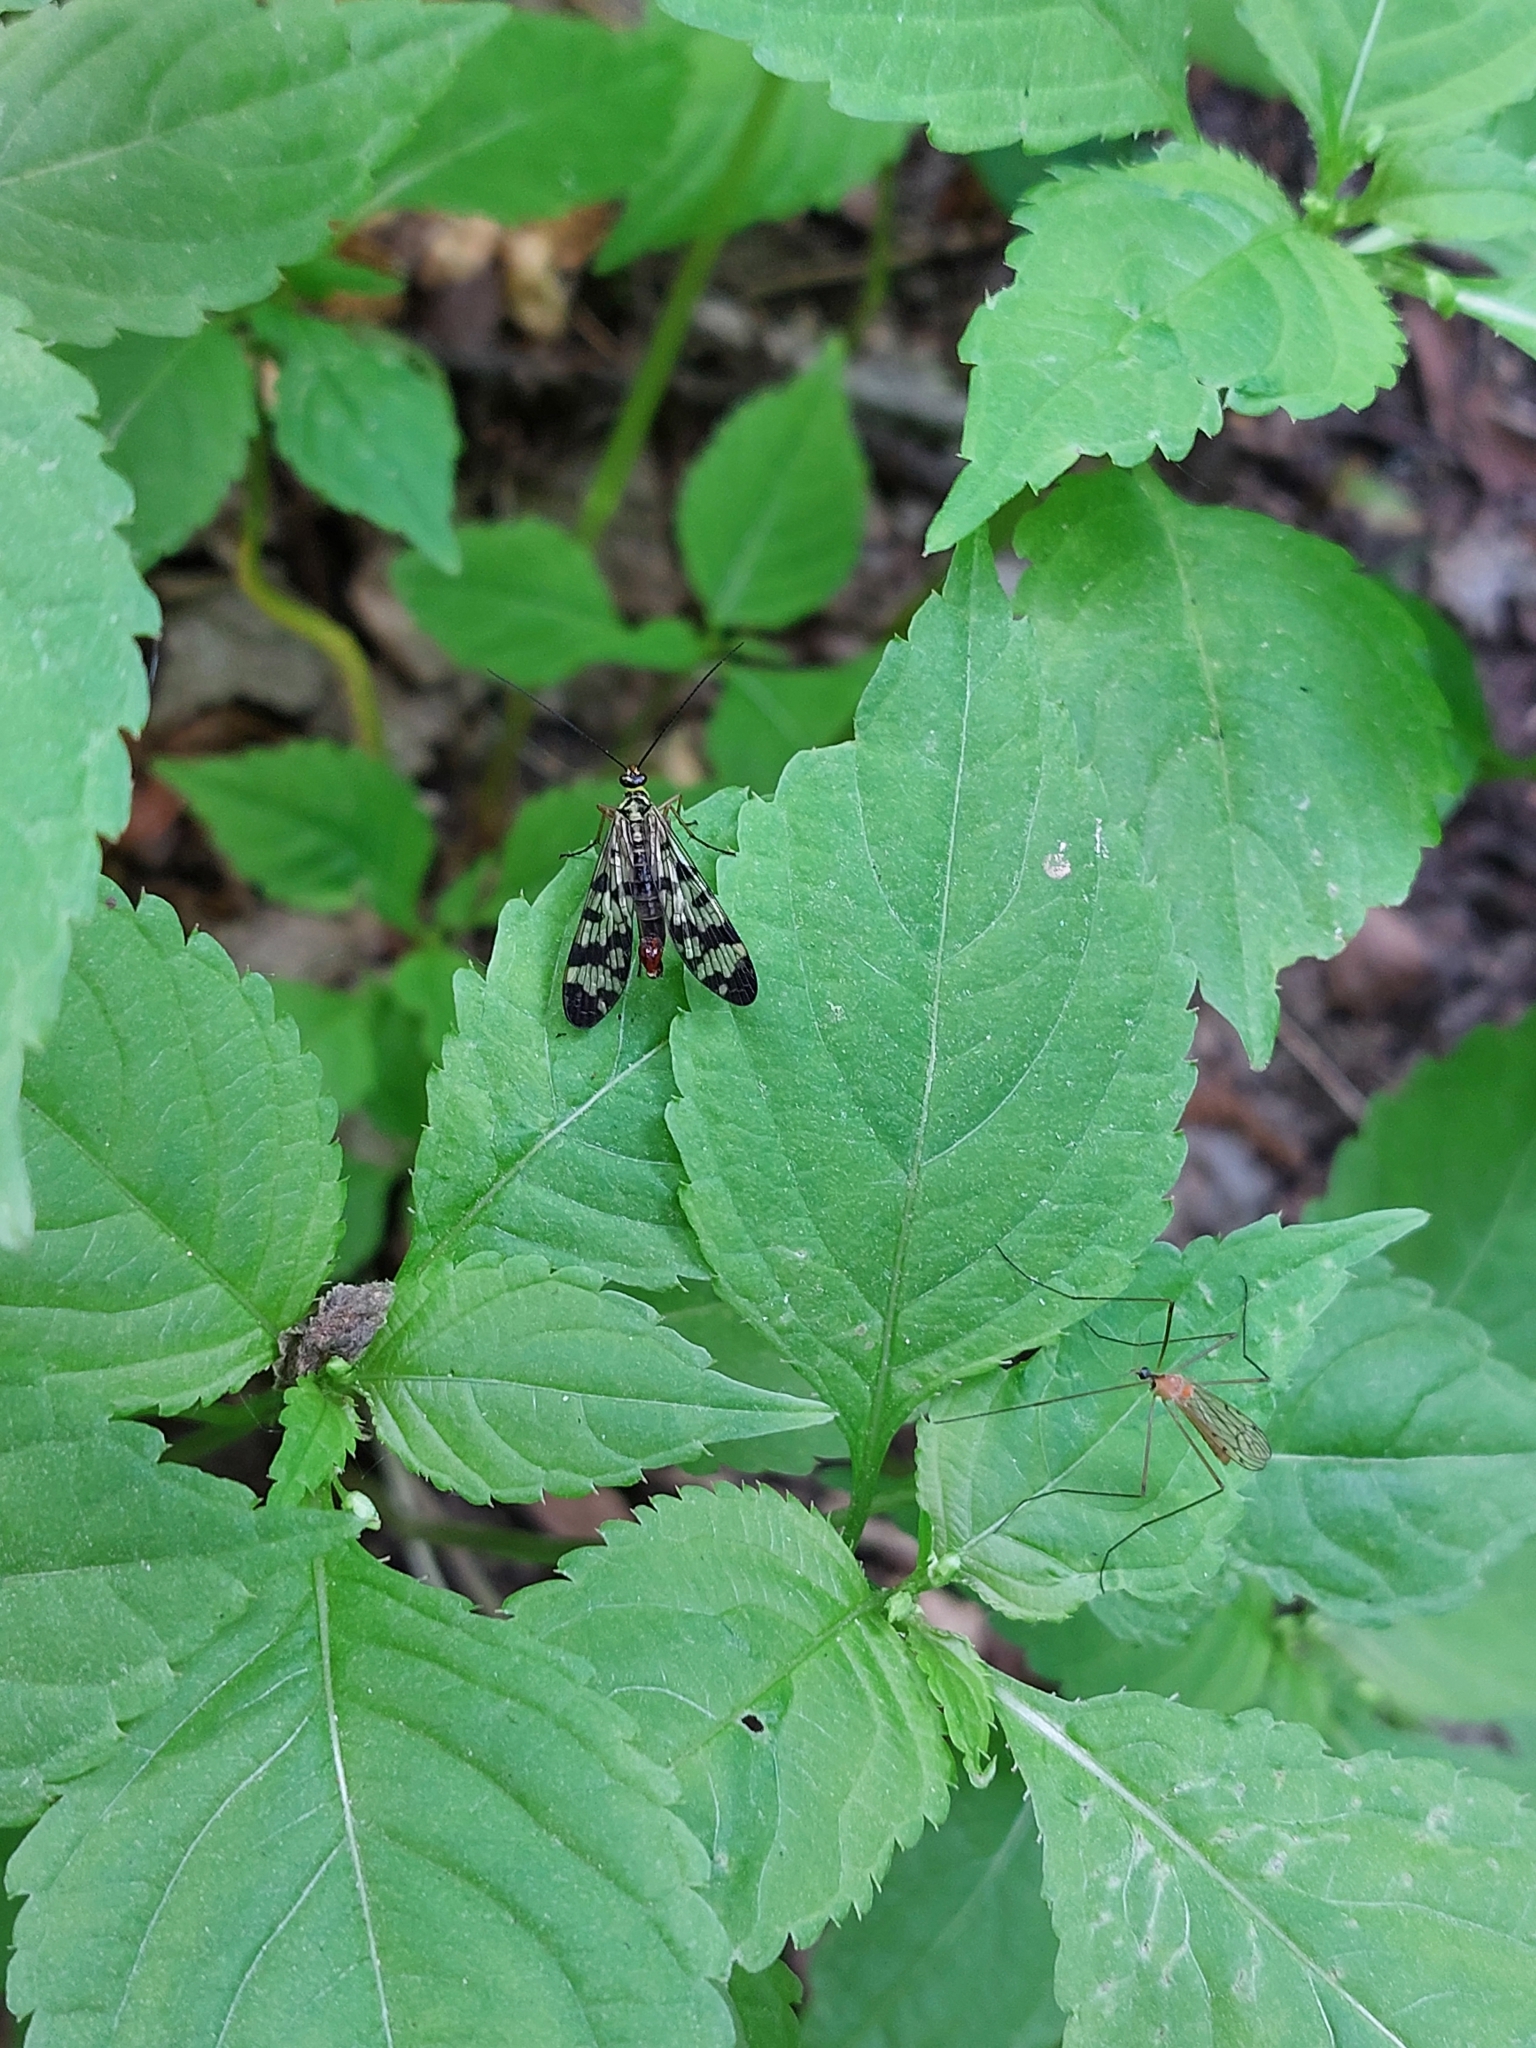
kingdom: Animalia
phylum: Arthropoda
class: Insecta
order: Mecoptera
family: Panorpidae
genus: Panorpa
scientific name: Panorpa communis
